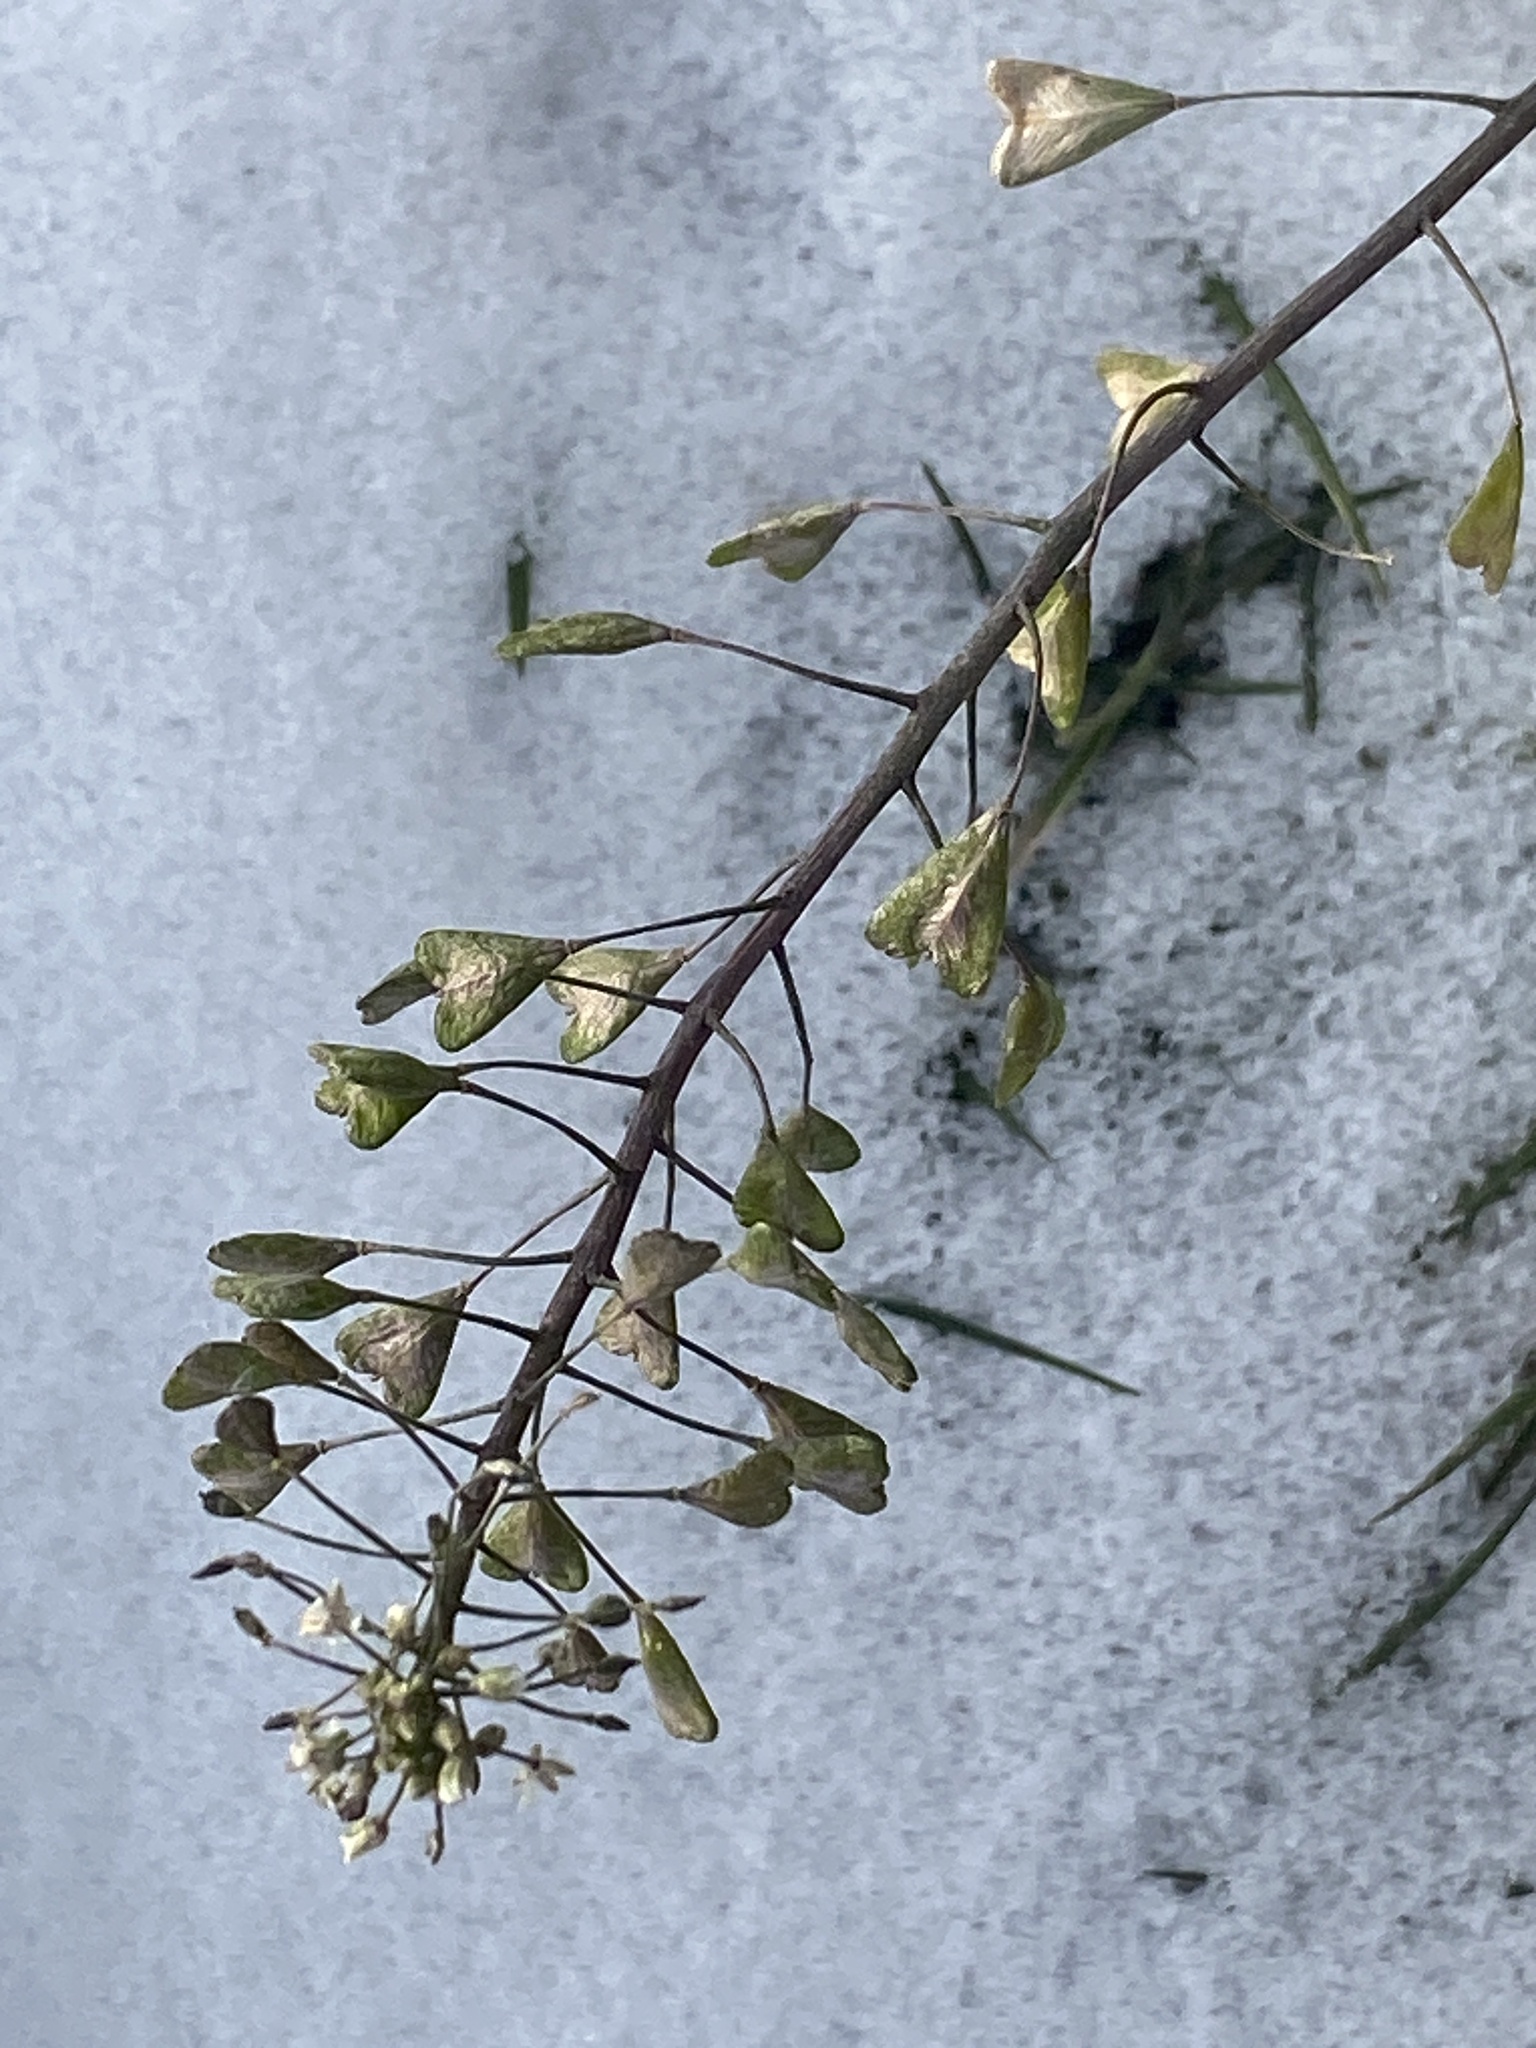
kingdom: Plantae
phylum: Tracheophyta
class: Magnoliopsida
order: Brassicales
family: Brassicaceae
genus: Capsella
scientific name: Capsella bursa-pastoris
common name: Shepherd's purse
